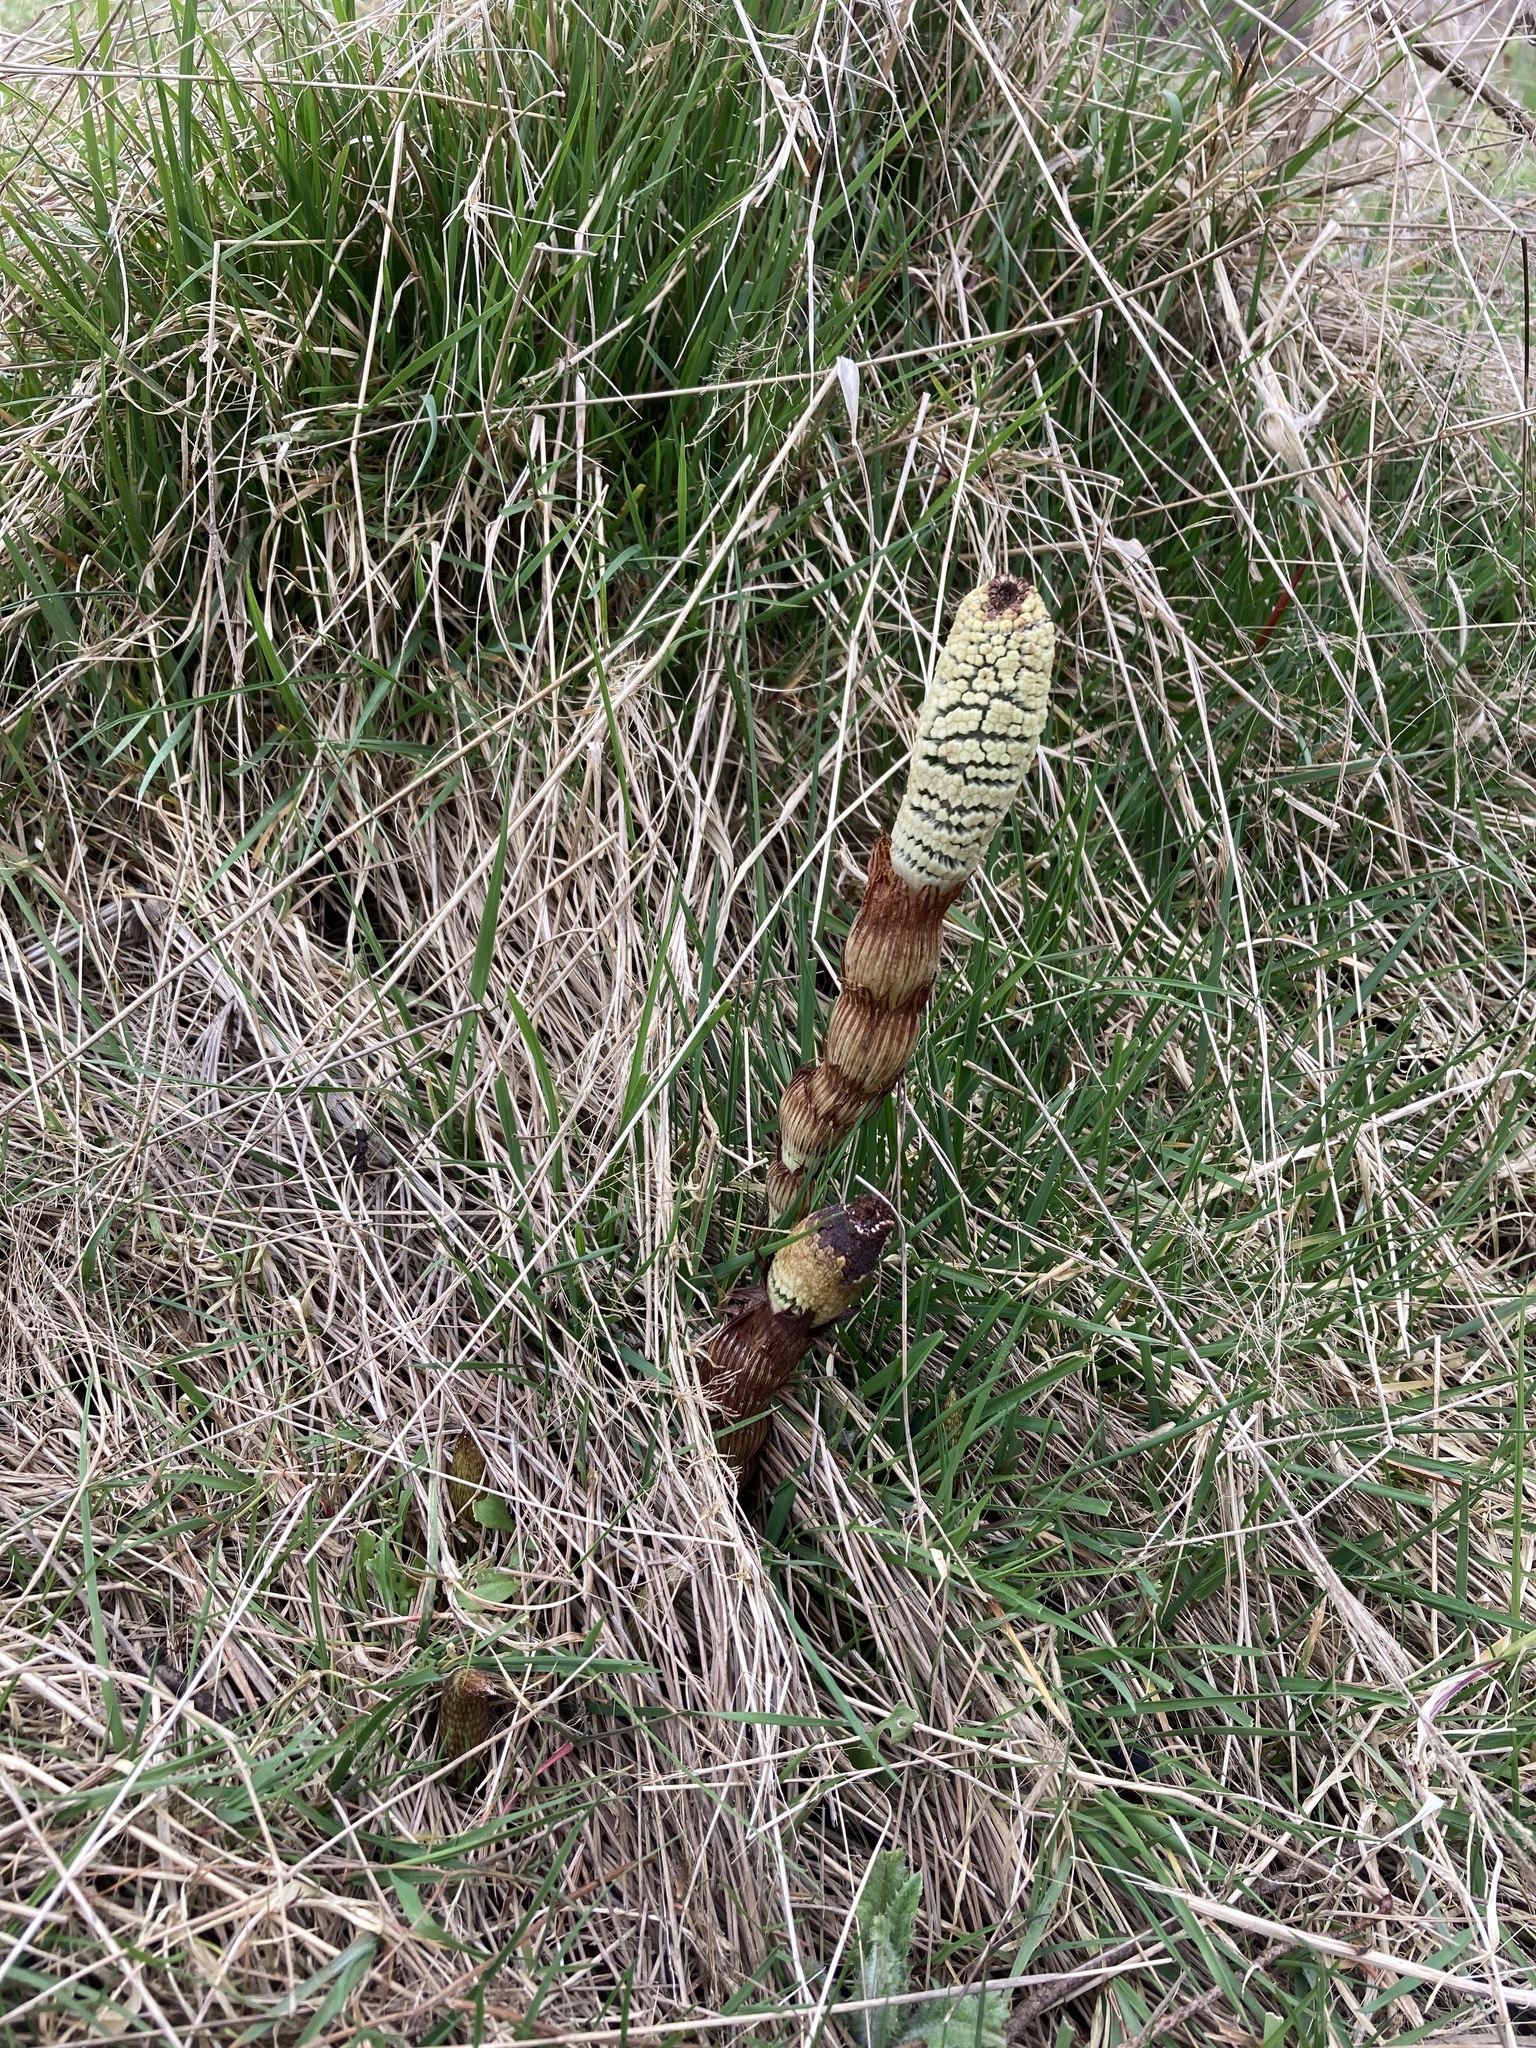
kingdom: Plantae
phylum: Tracheophyta
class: Polypodiopsida
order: Equisetales
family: Equisetaceae
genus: Equisetum
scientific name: Equisetum braunii
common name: Braun's horsetail
